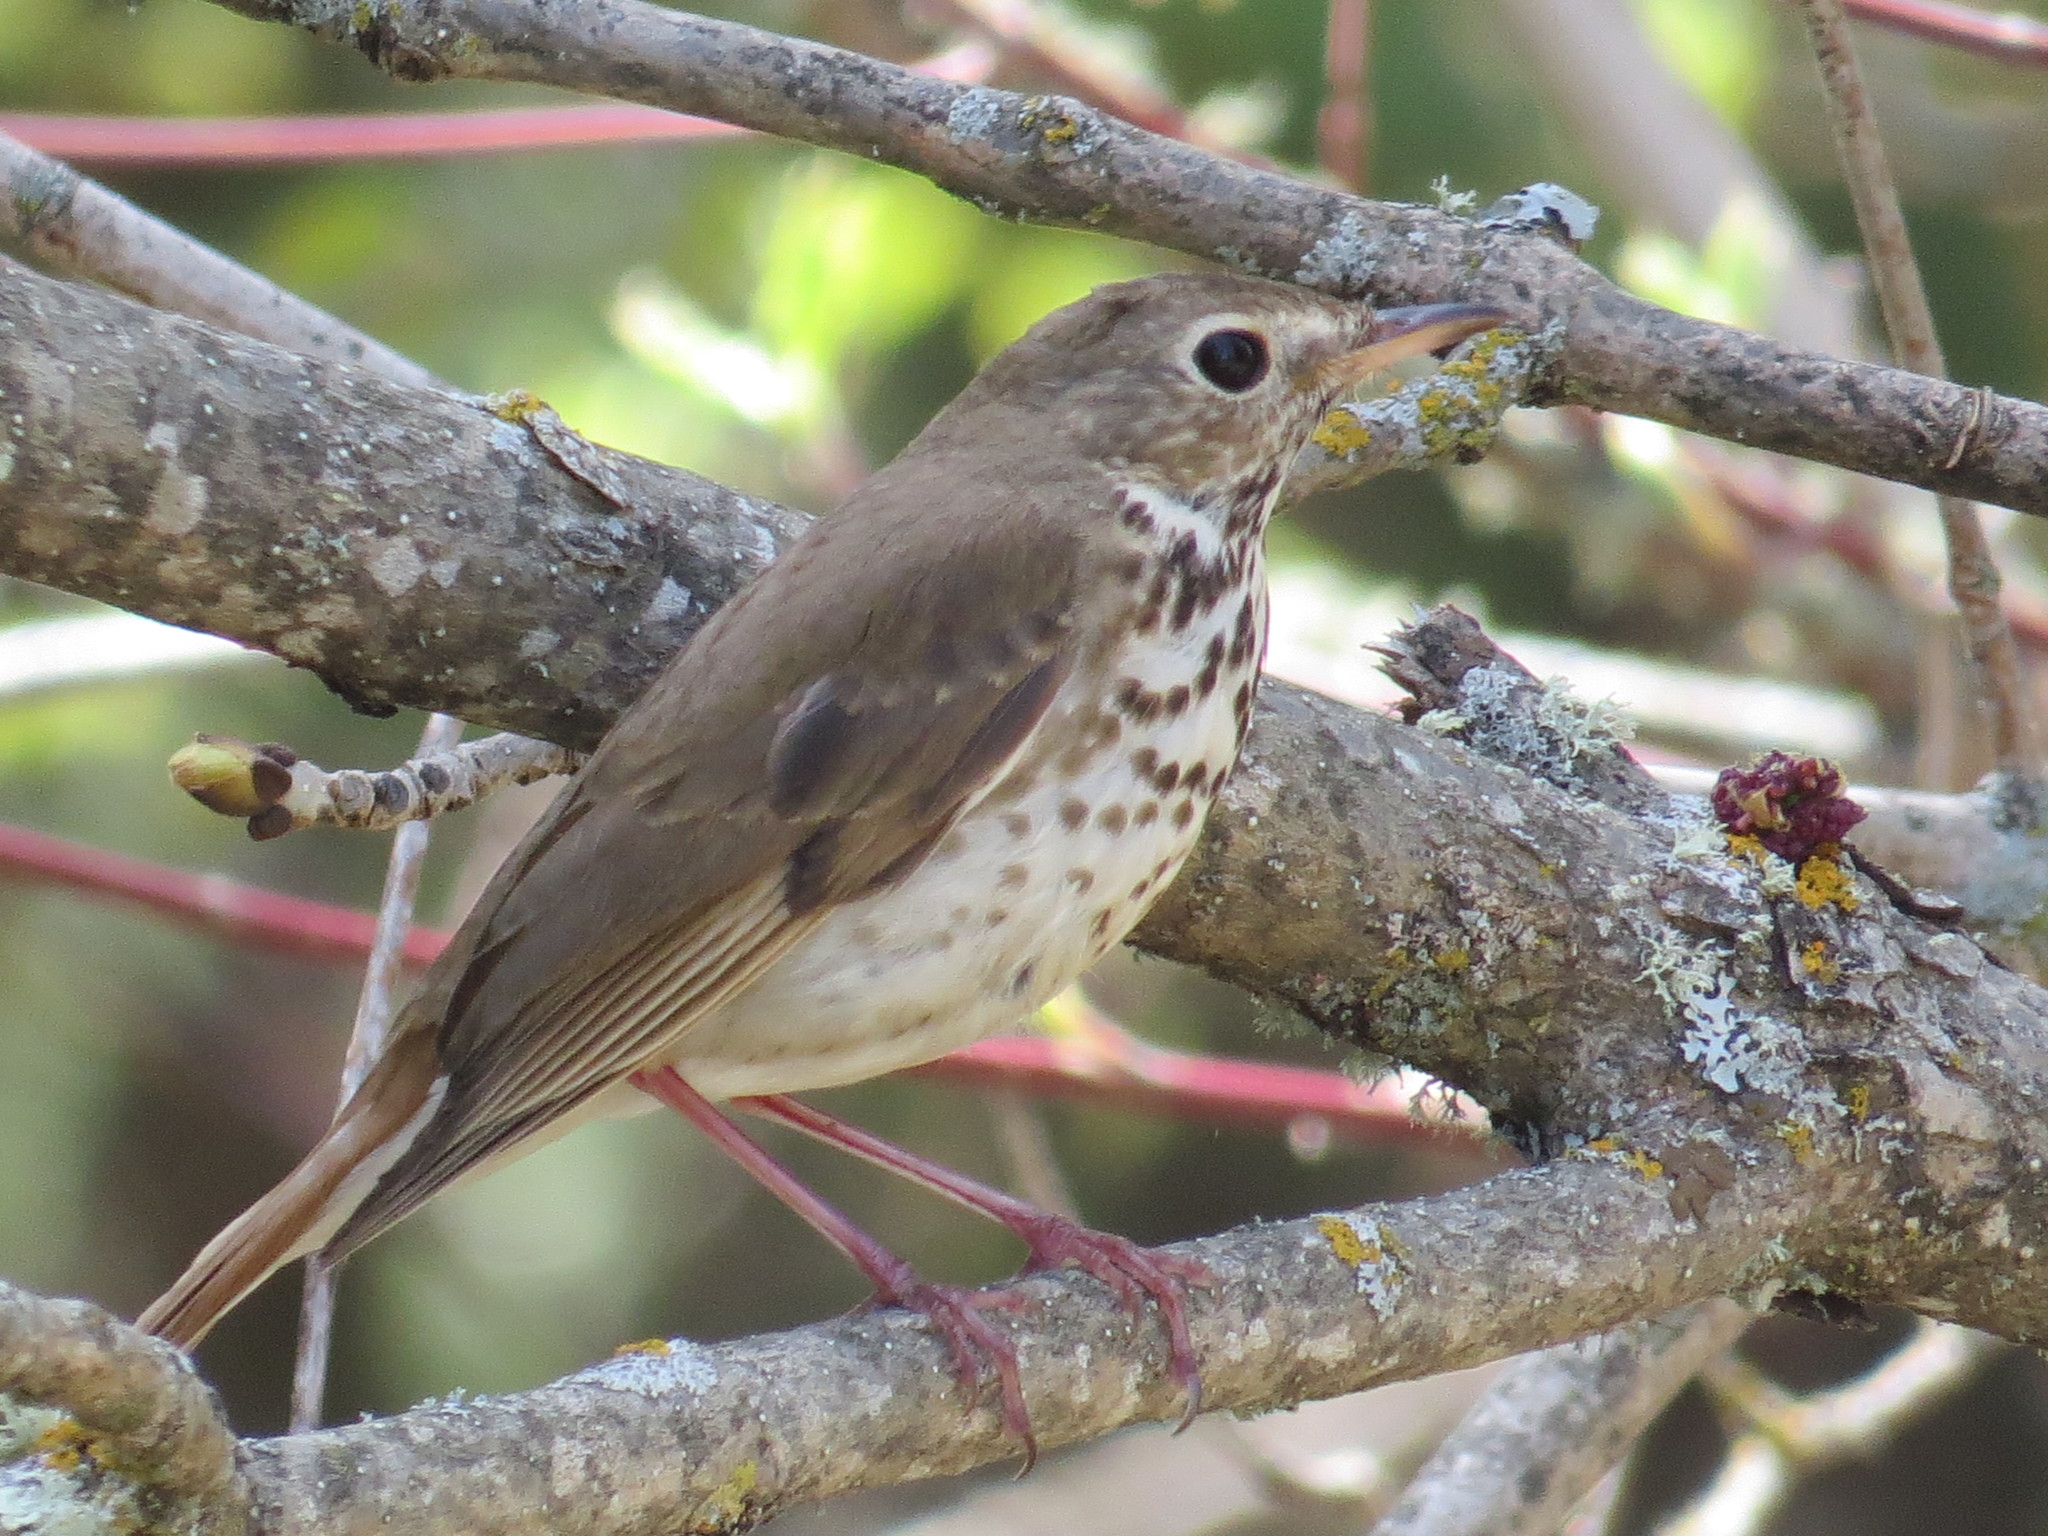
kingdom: Animalia
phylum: Chordata
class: Aves
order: Passeriformes
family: Turdidae
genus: Catharus
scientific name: Catharus guttatus
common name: Hermit thrush
